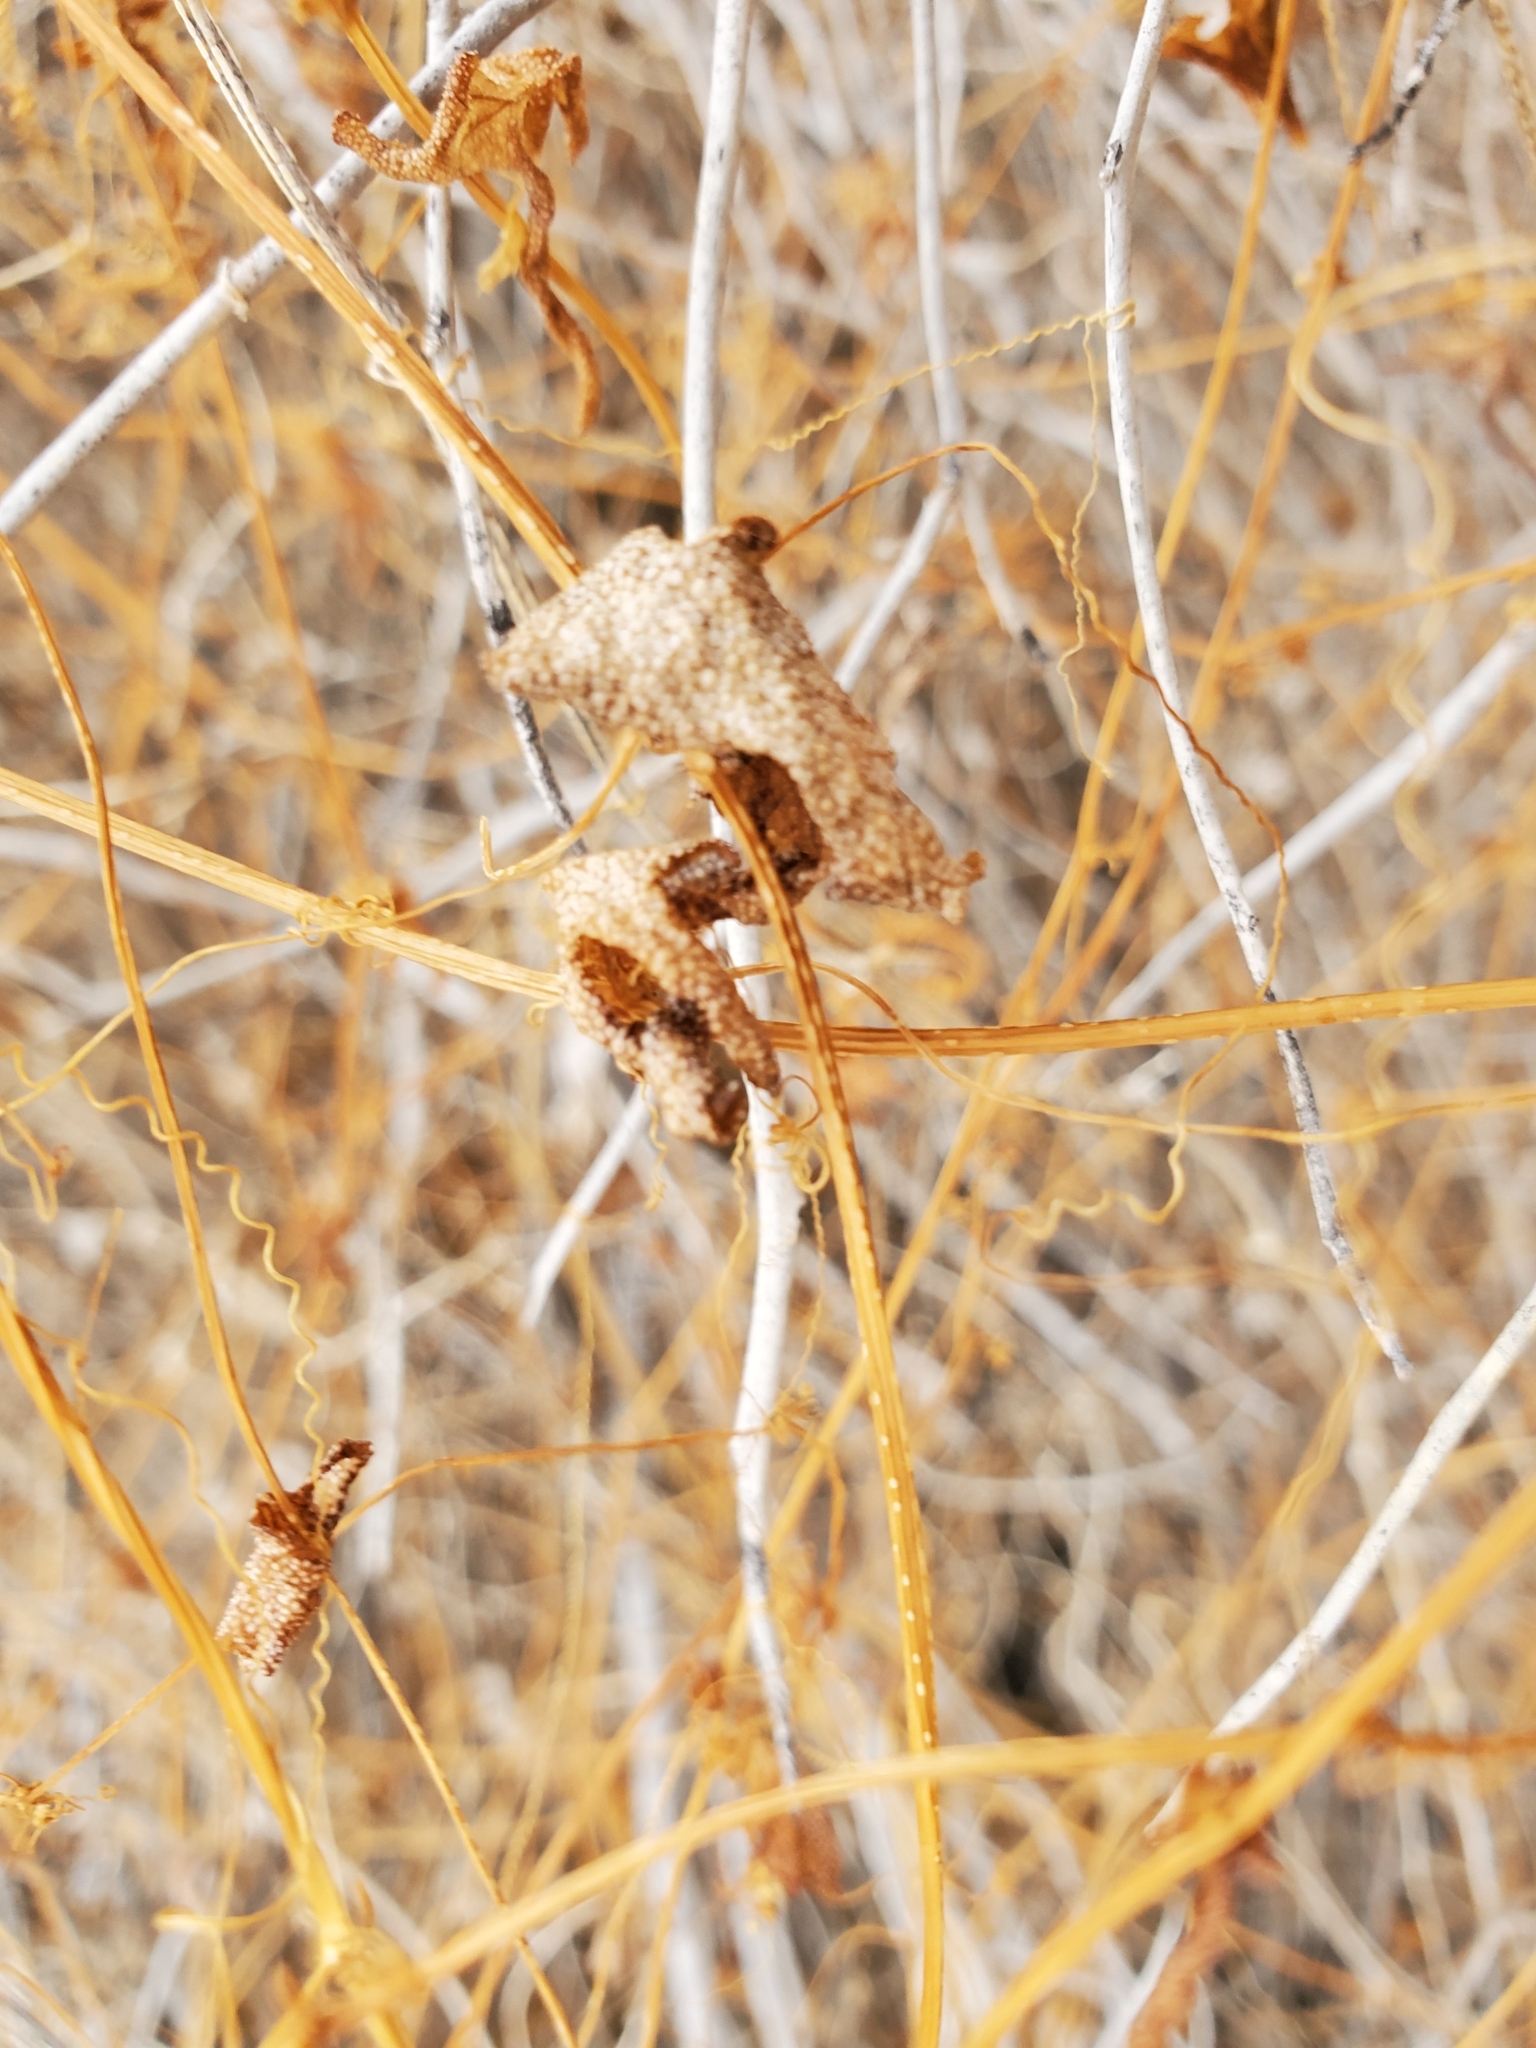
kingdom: Plantae
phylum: Tracheophyta
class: Magnoliopsida
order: Cucurbitales
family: Cucurbitaceae
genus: Echinopepon
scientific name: Echinopepon bigelovii
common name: Desert starvine
